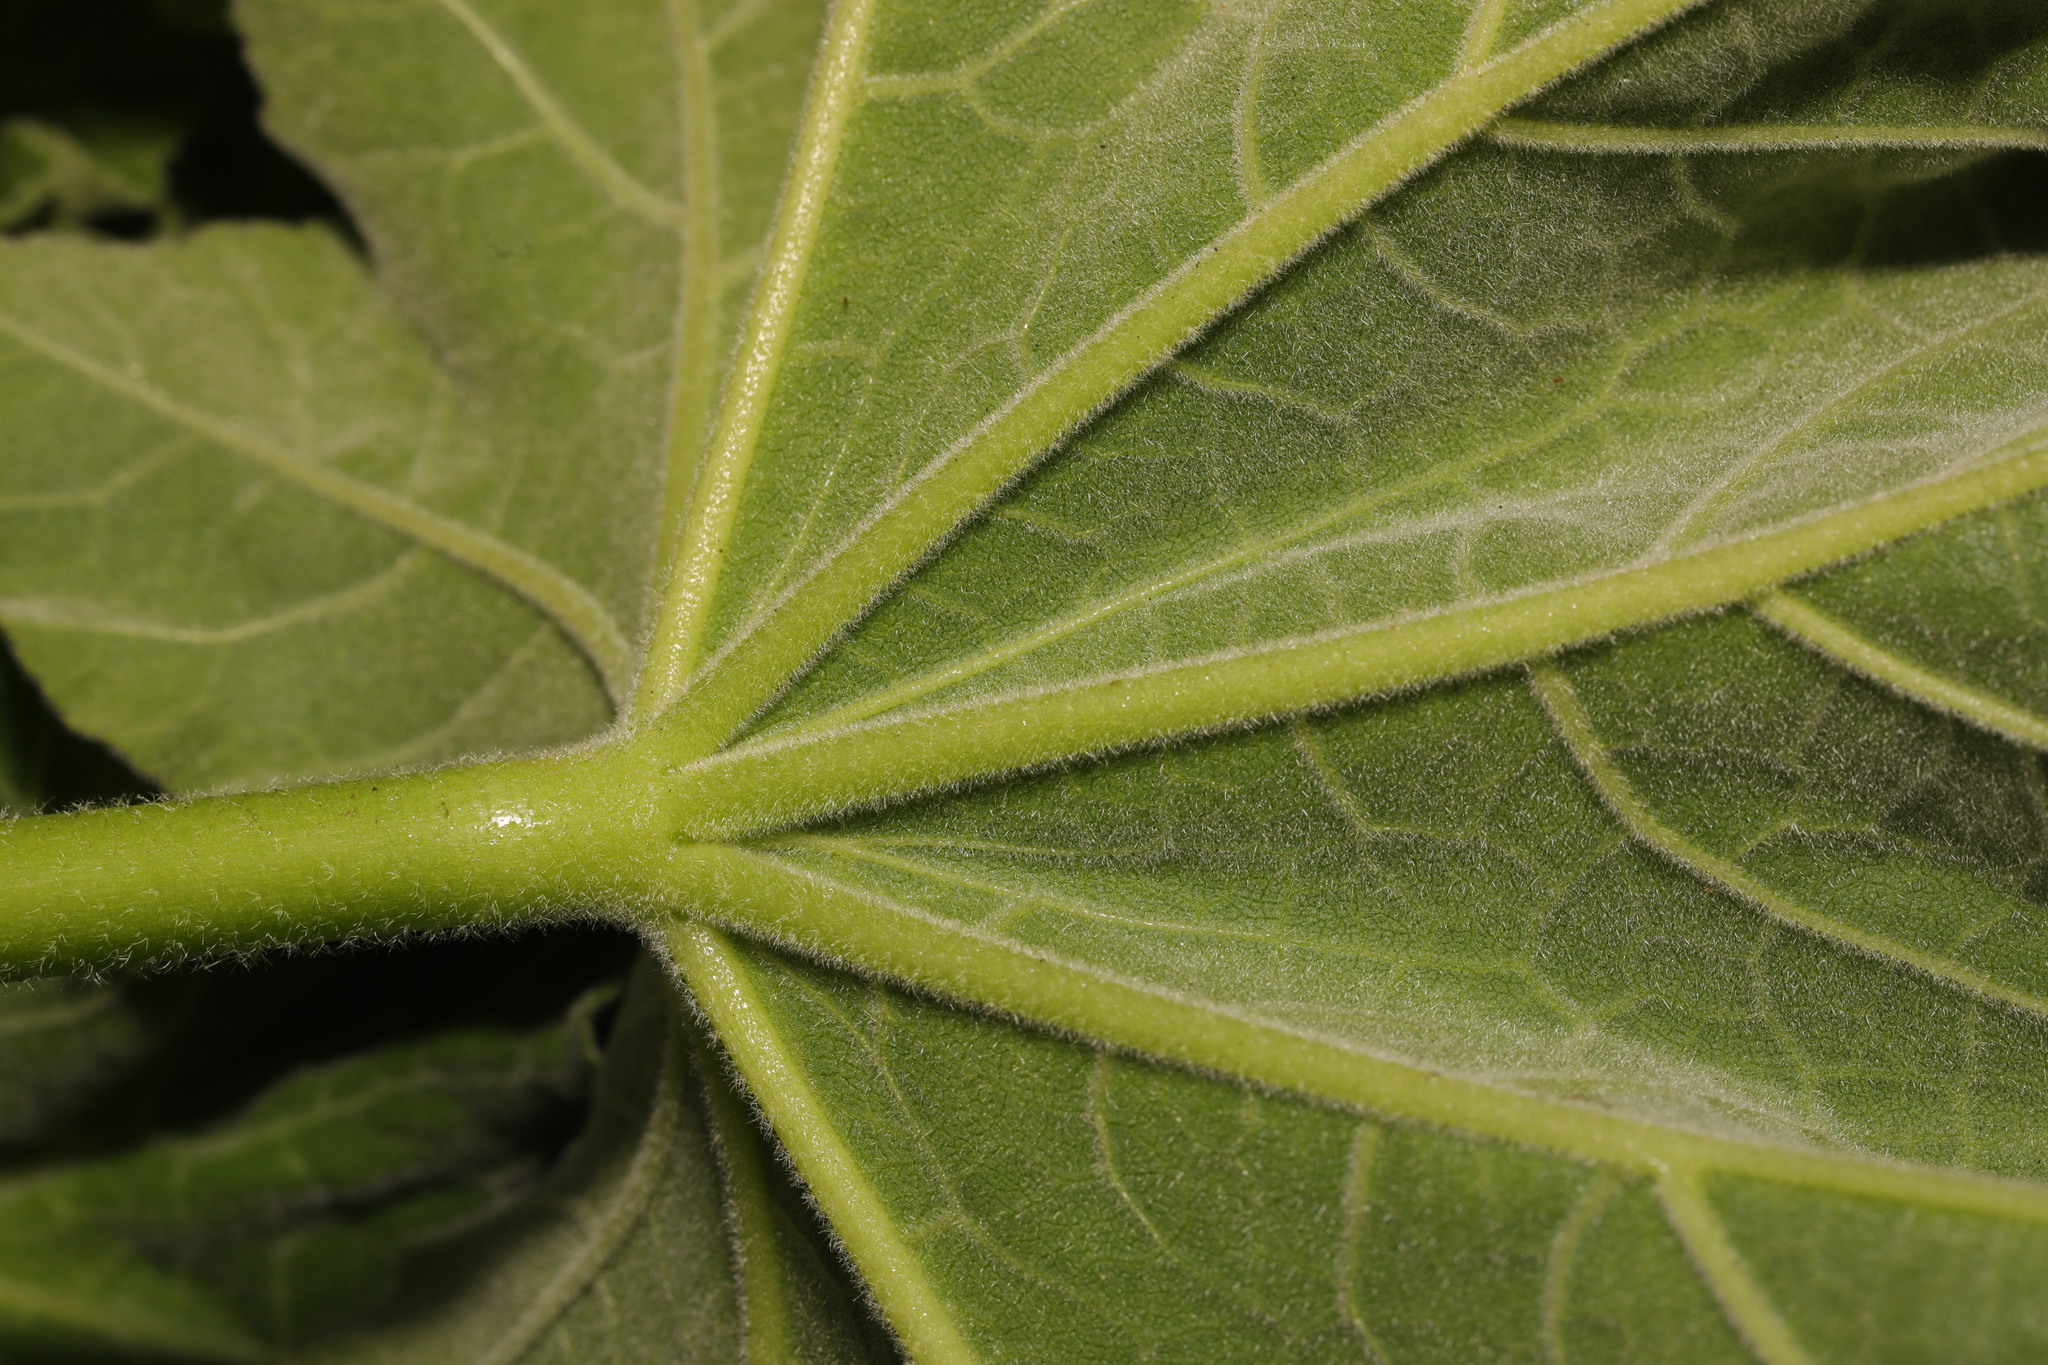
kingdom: Plantae
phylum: Tracheophyta
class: Magnoliopsida
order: Malvales
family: Malvaceae
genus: Malva
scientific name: Malva arborea
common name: Tree mallow
